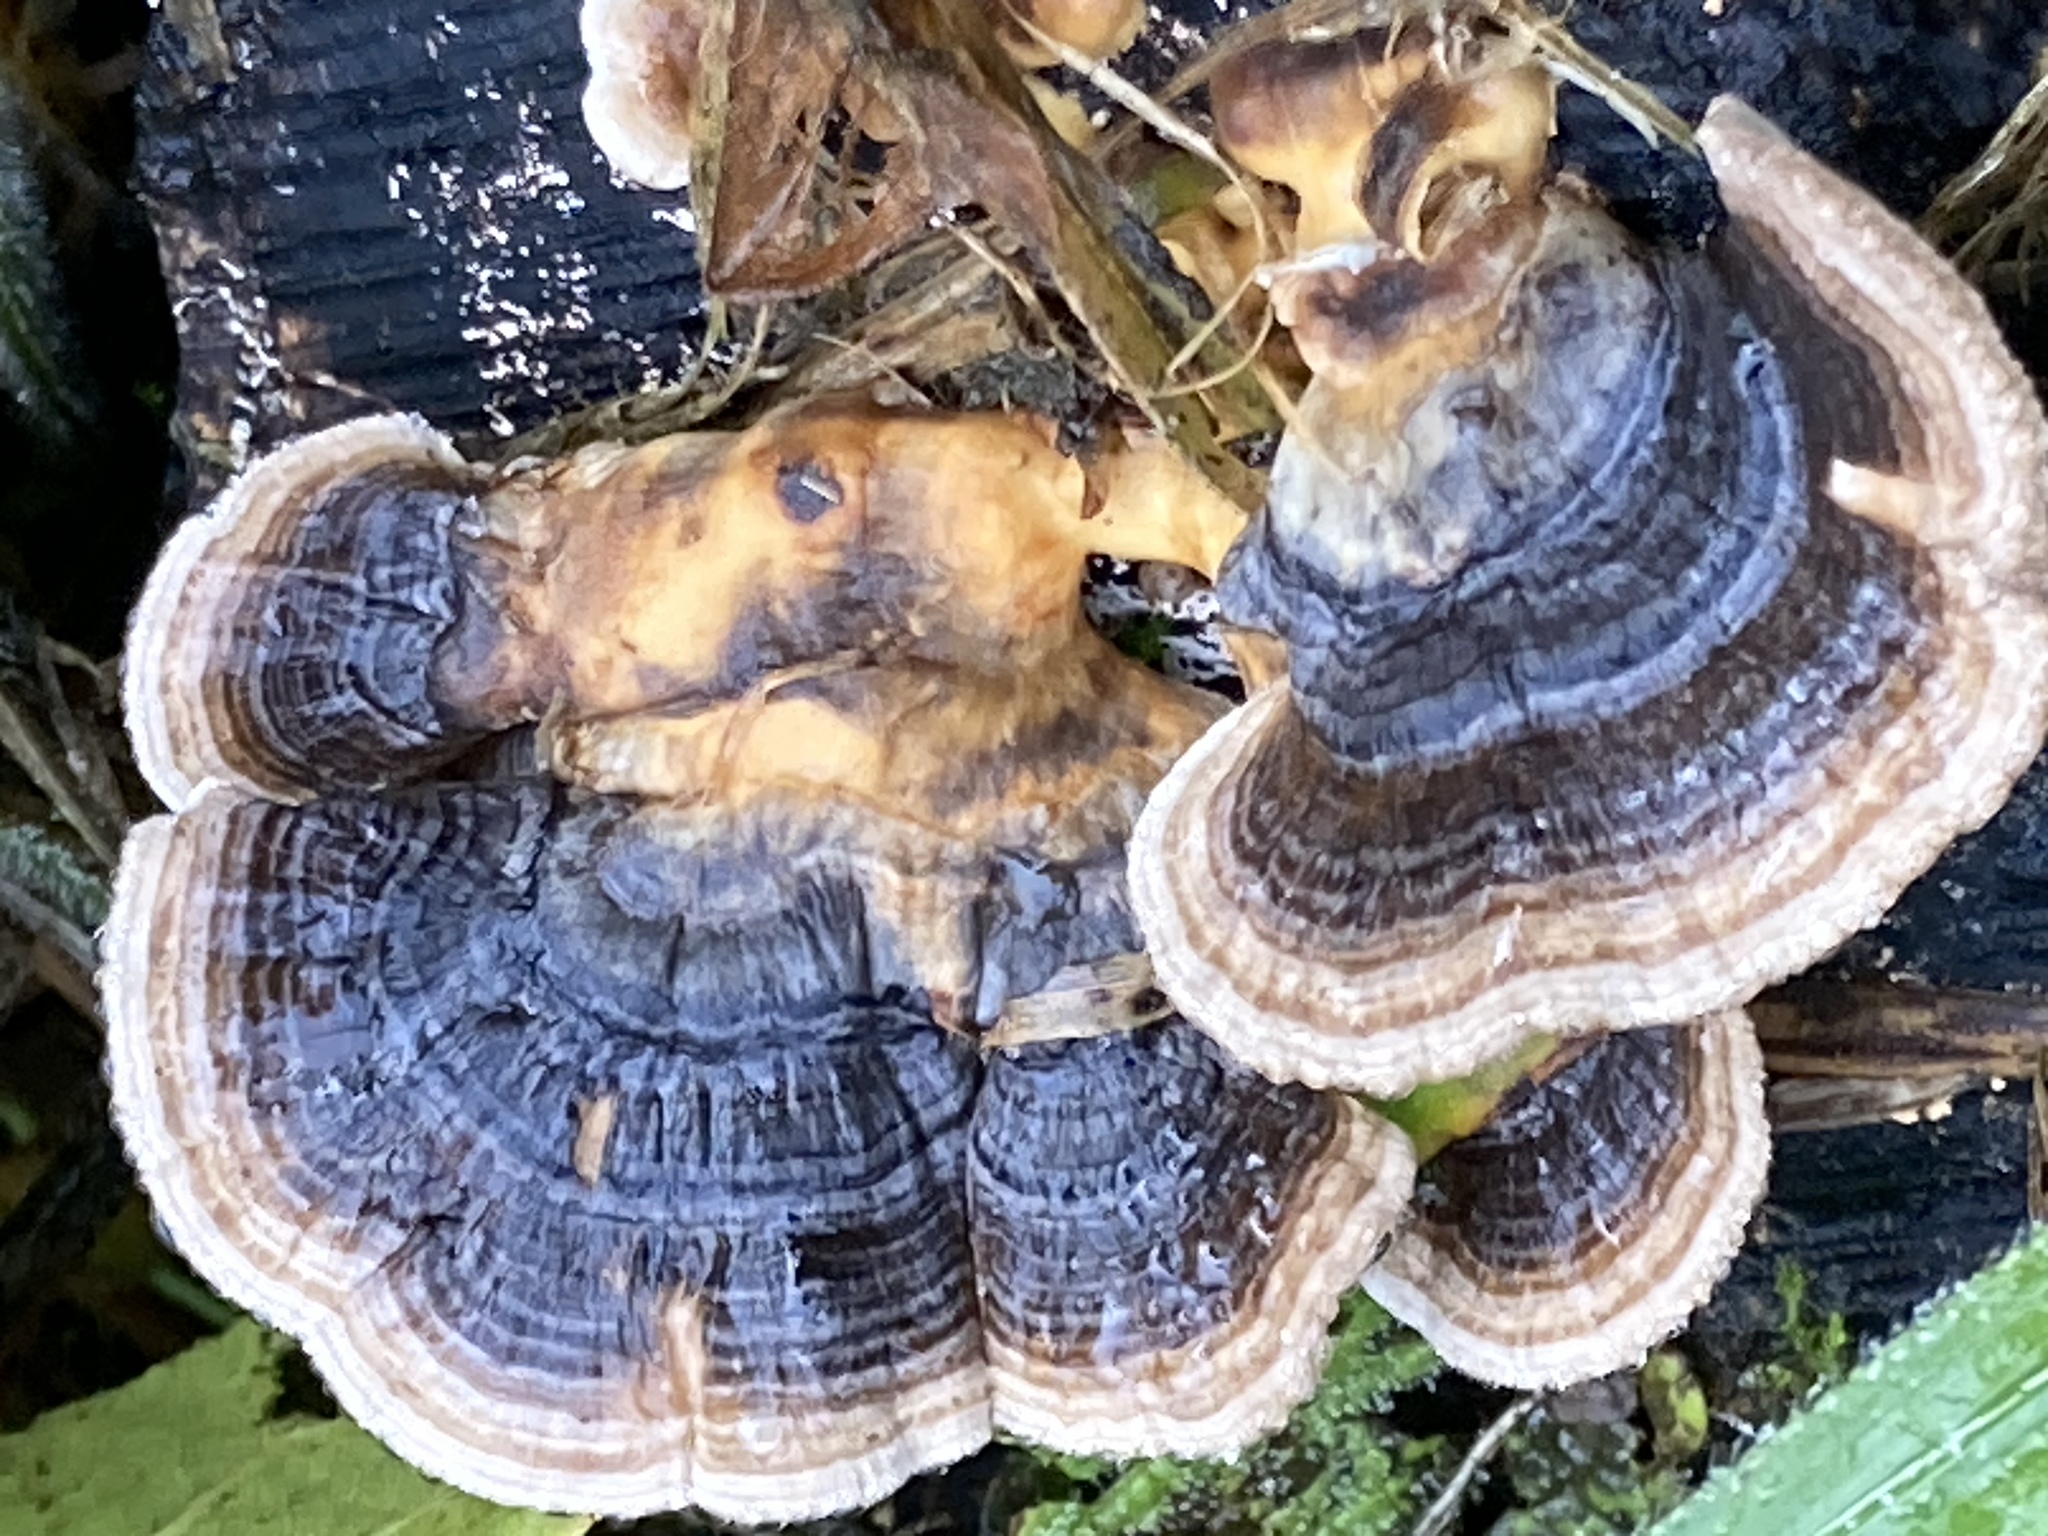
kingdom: Fungi
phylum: Basidiomycota
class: Agaricomycetes
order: Polyporales
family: Polyporaceae
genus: Trametes
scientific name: Trametes versicolor
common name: Turkeytail
